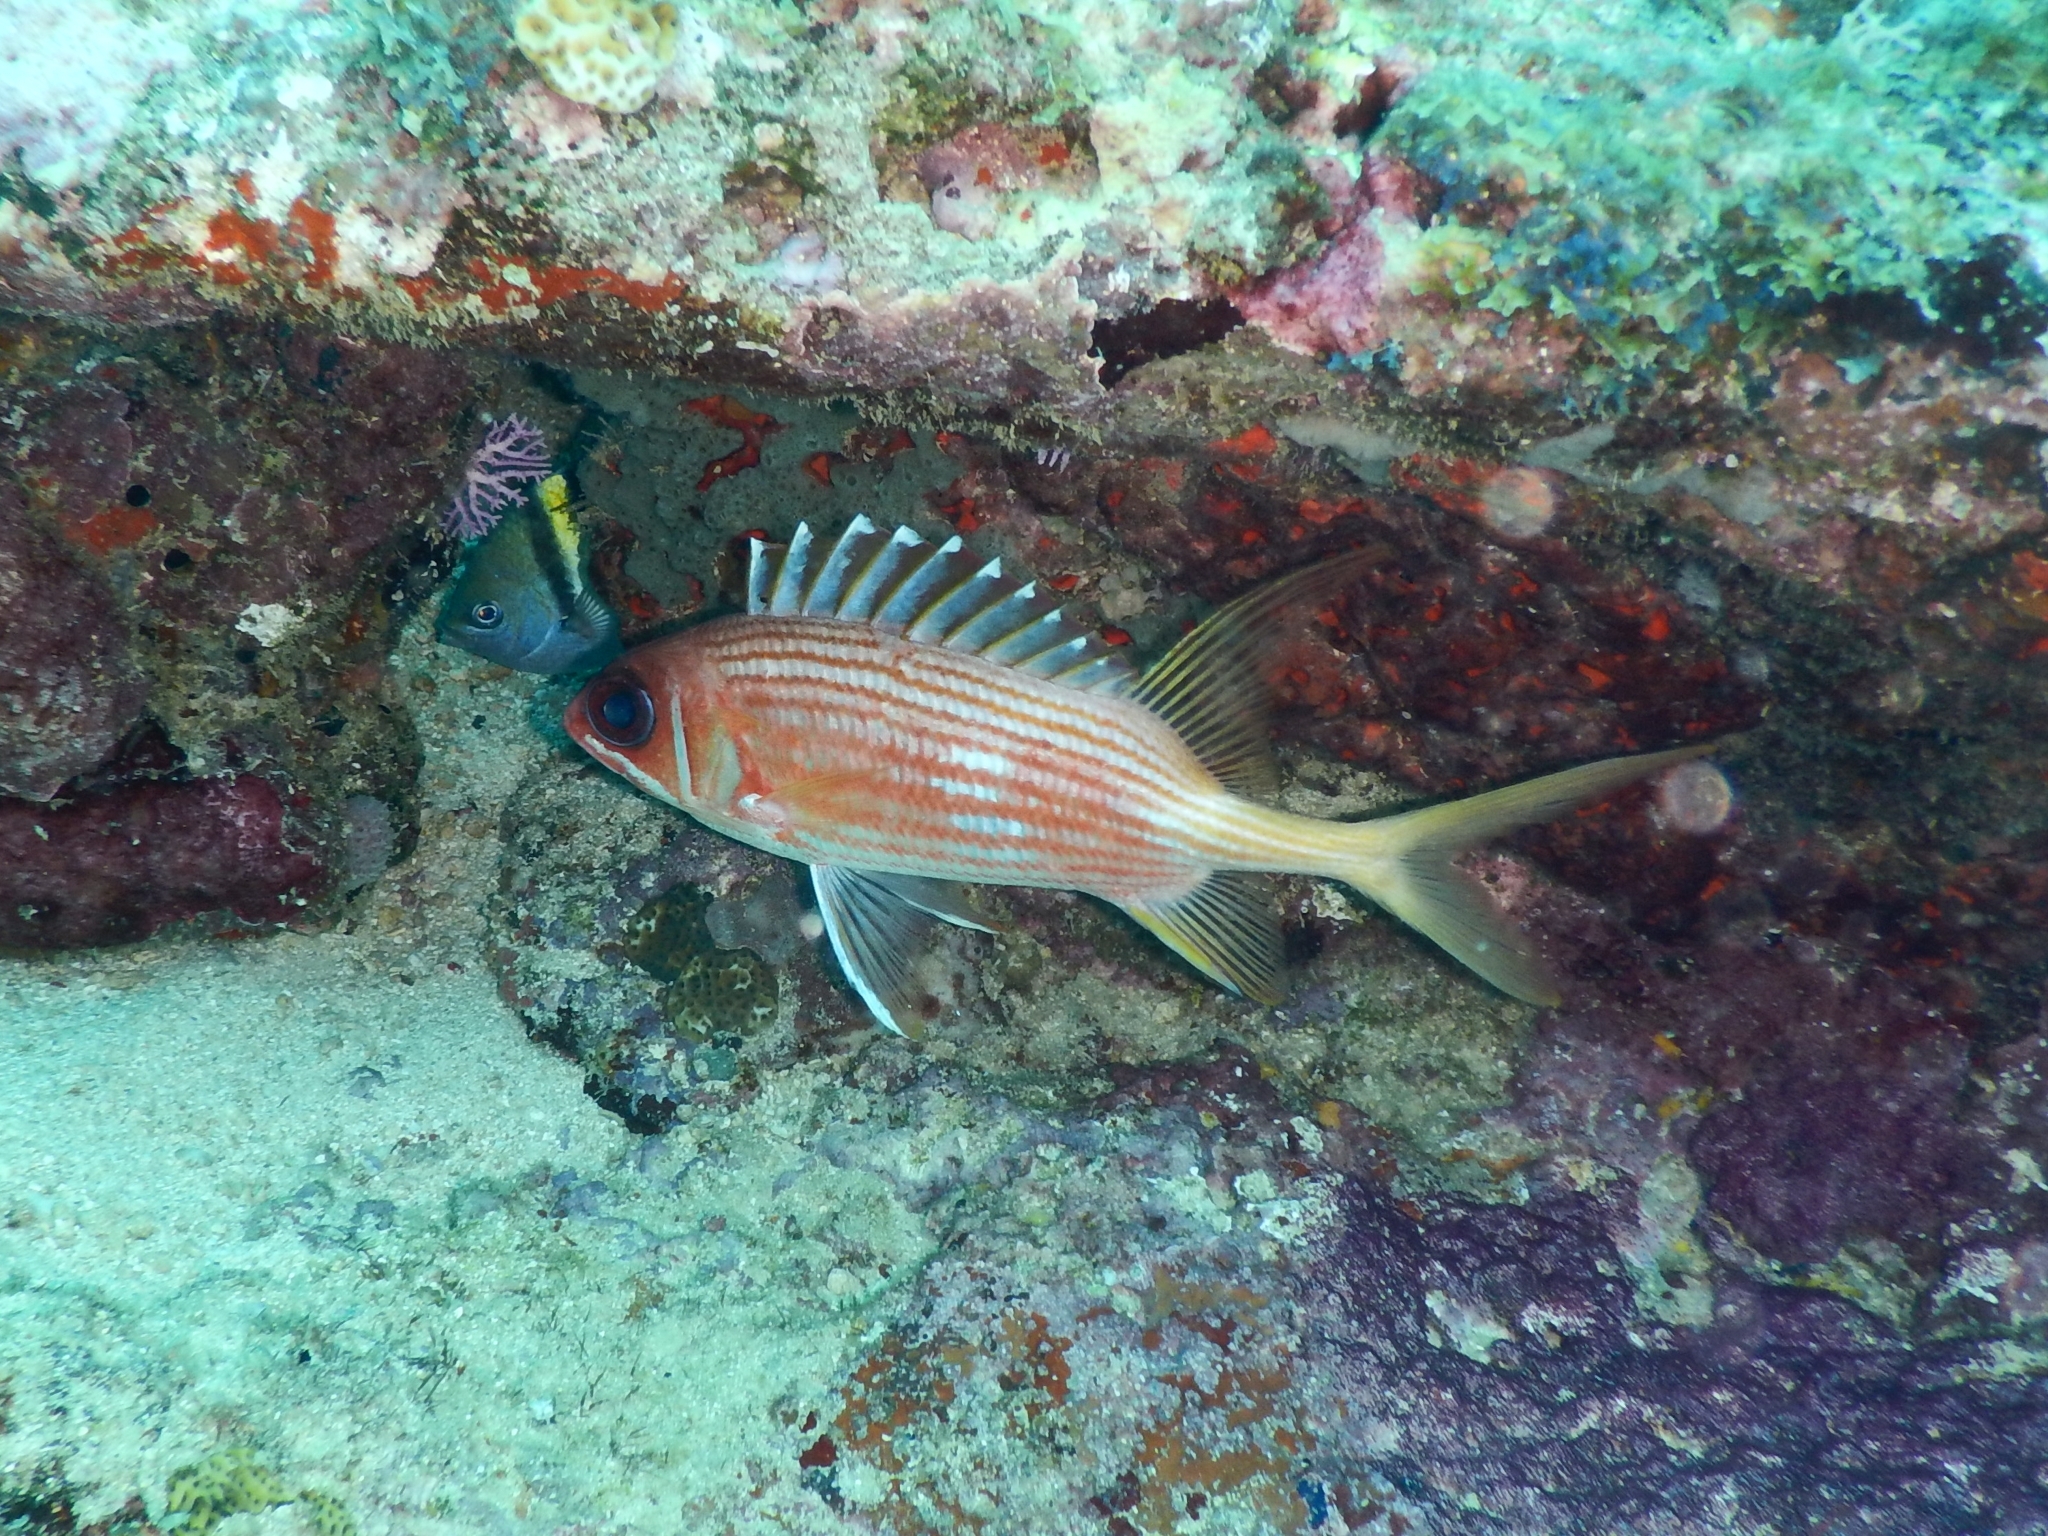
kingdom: Animalia
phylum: Chordata
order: Beryciformes
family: Holocentridae
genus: Holocentrus
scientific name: Holocentrus rufus
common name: Longspine squirrelfish
